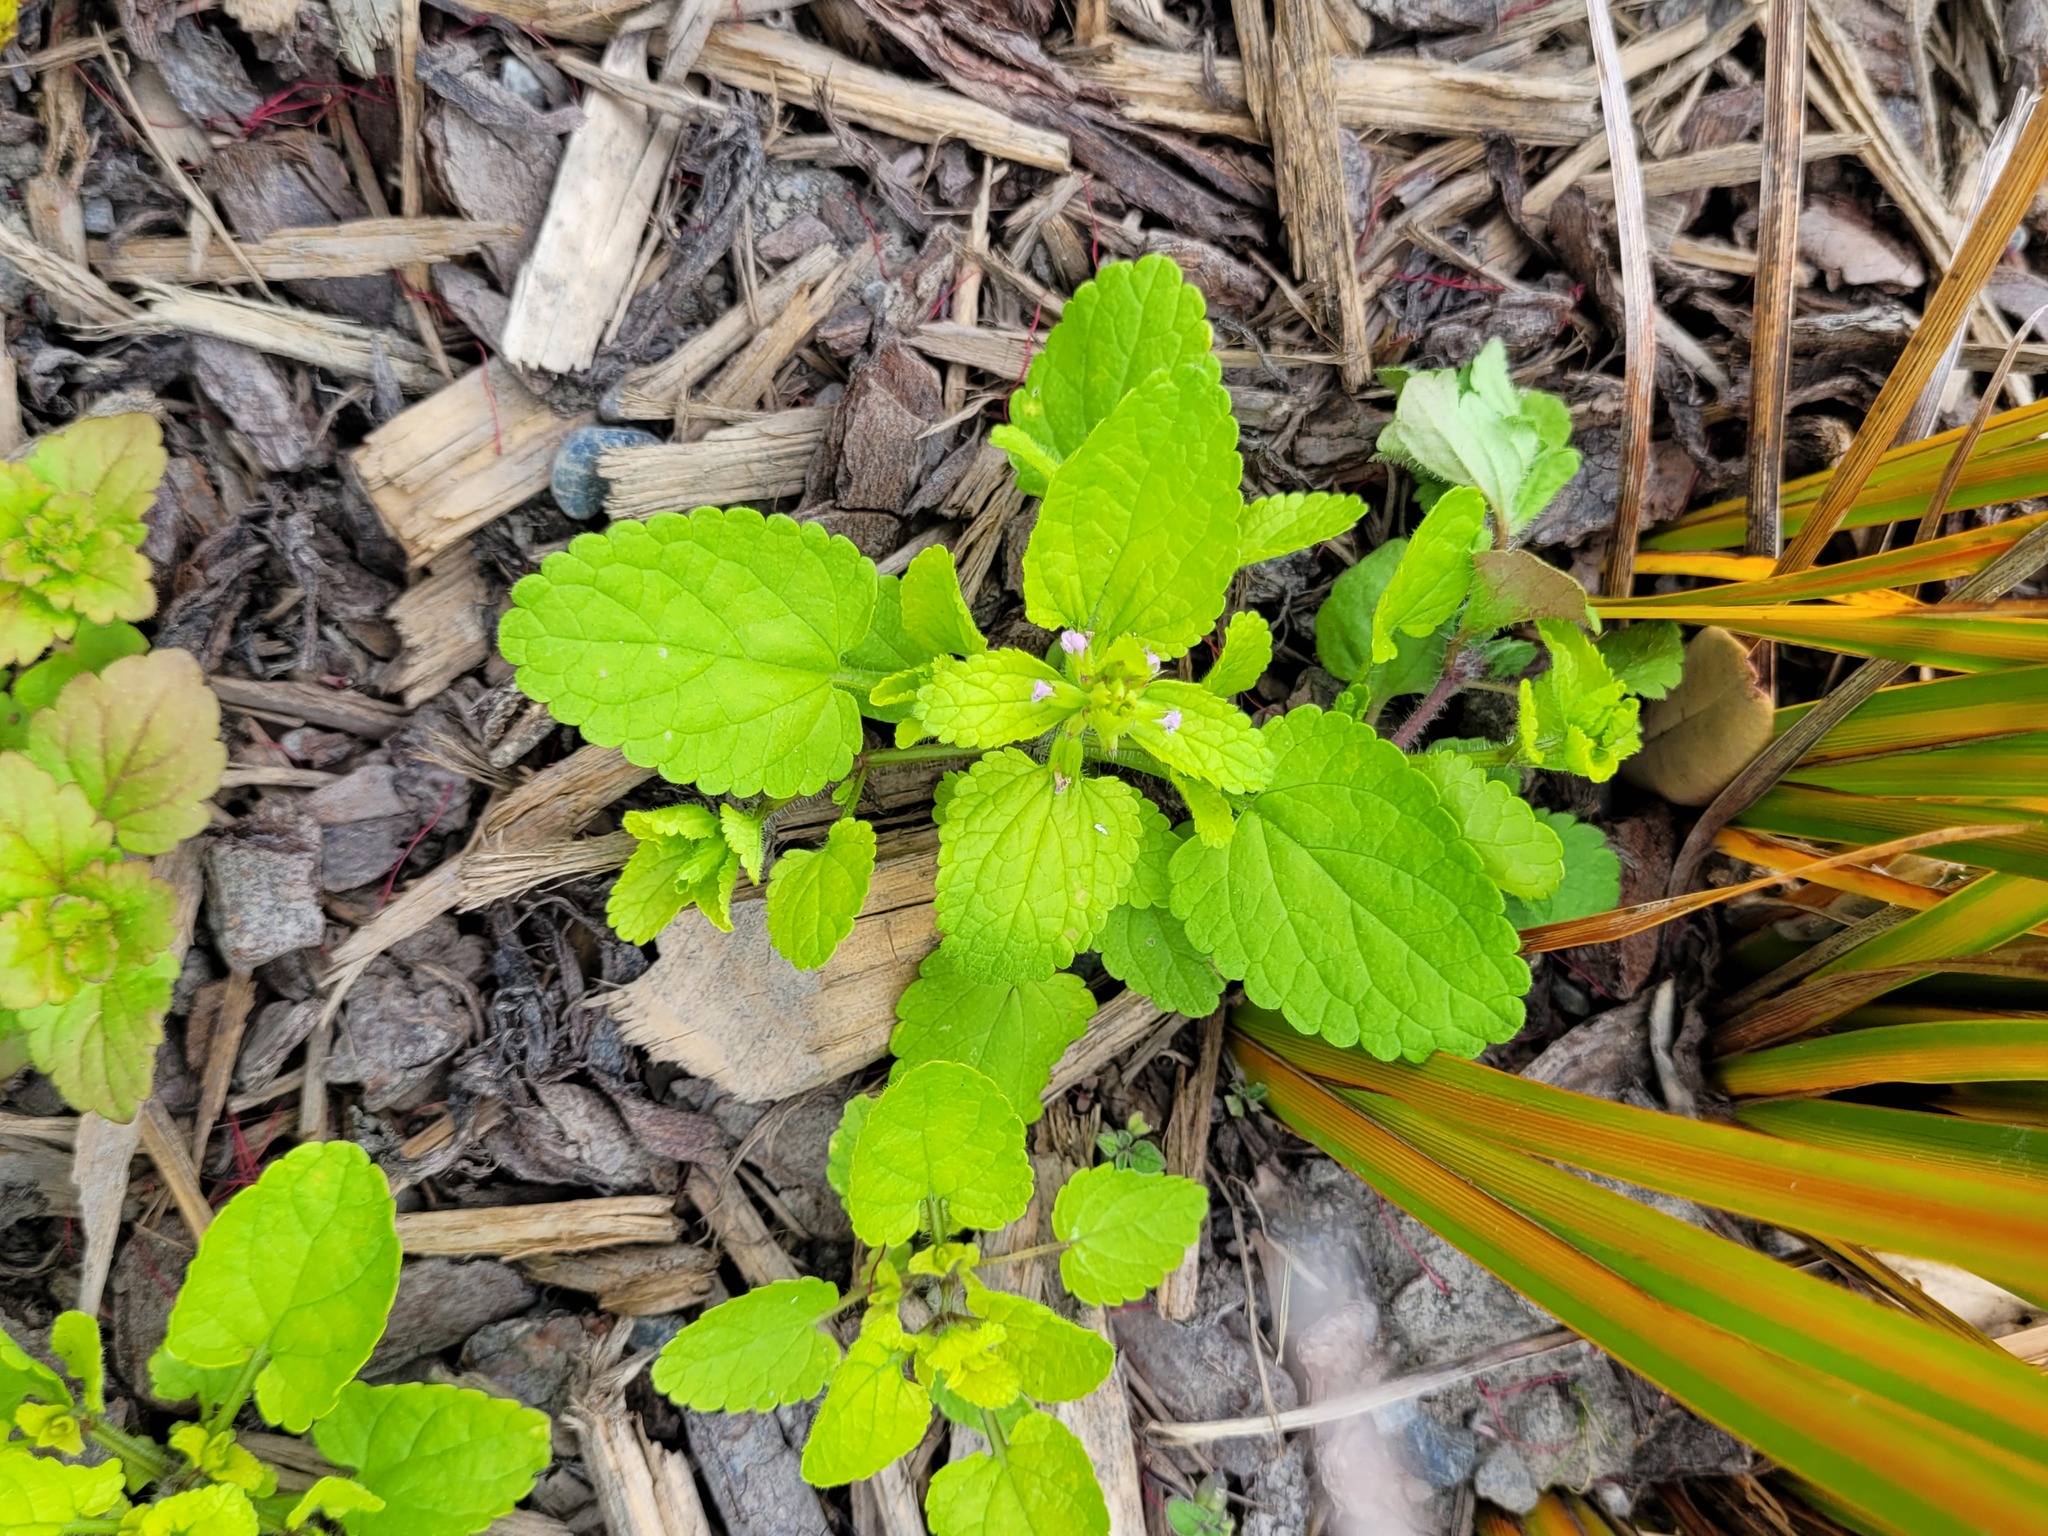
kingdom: Plantae
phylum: Tracheophyta
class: Magnoliopsida
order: Lamiales
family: Lamiaceae
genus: Stachys
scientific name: Stachys arvensis
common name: Field woundwort
